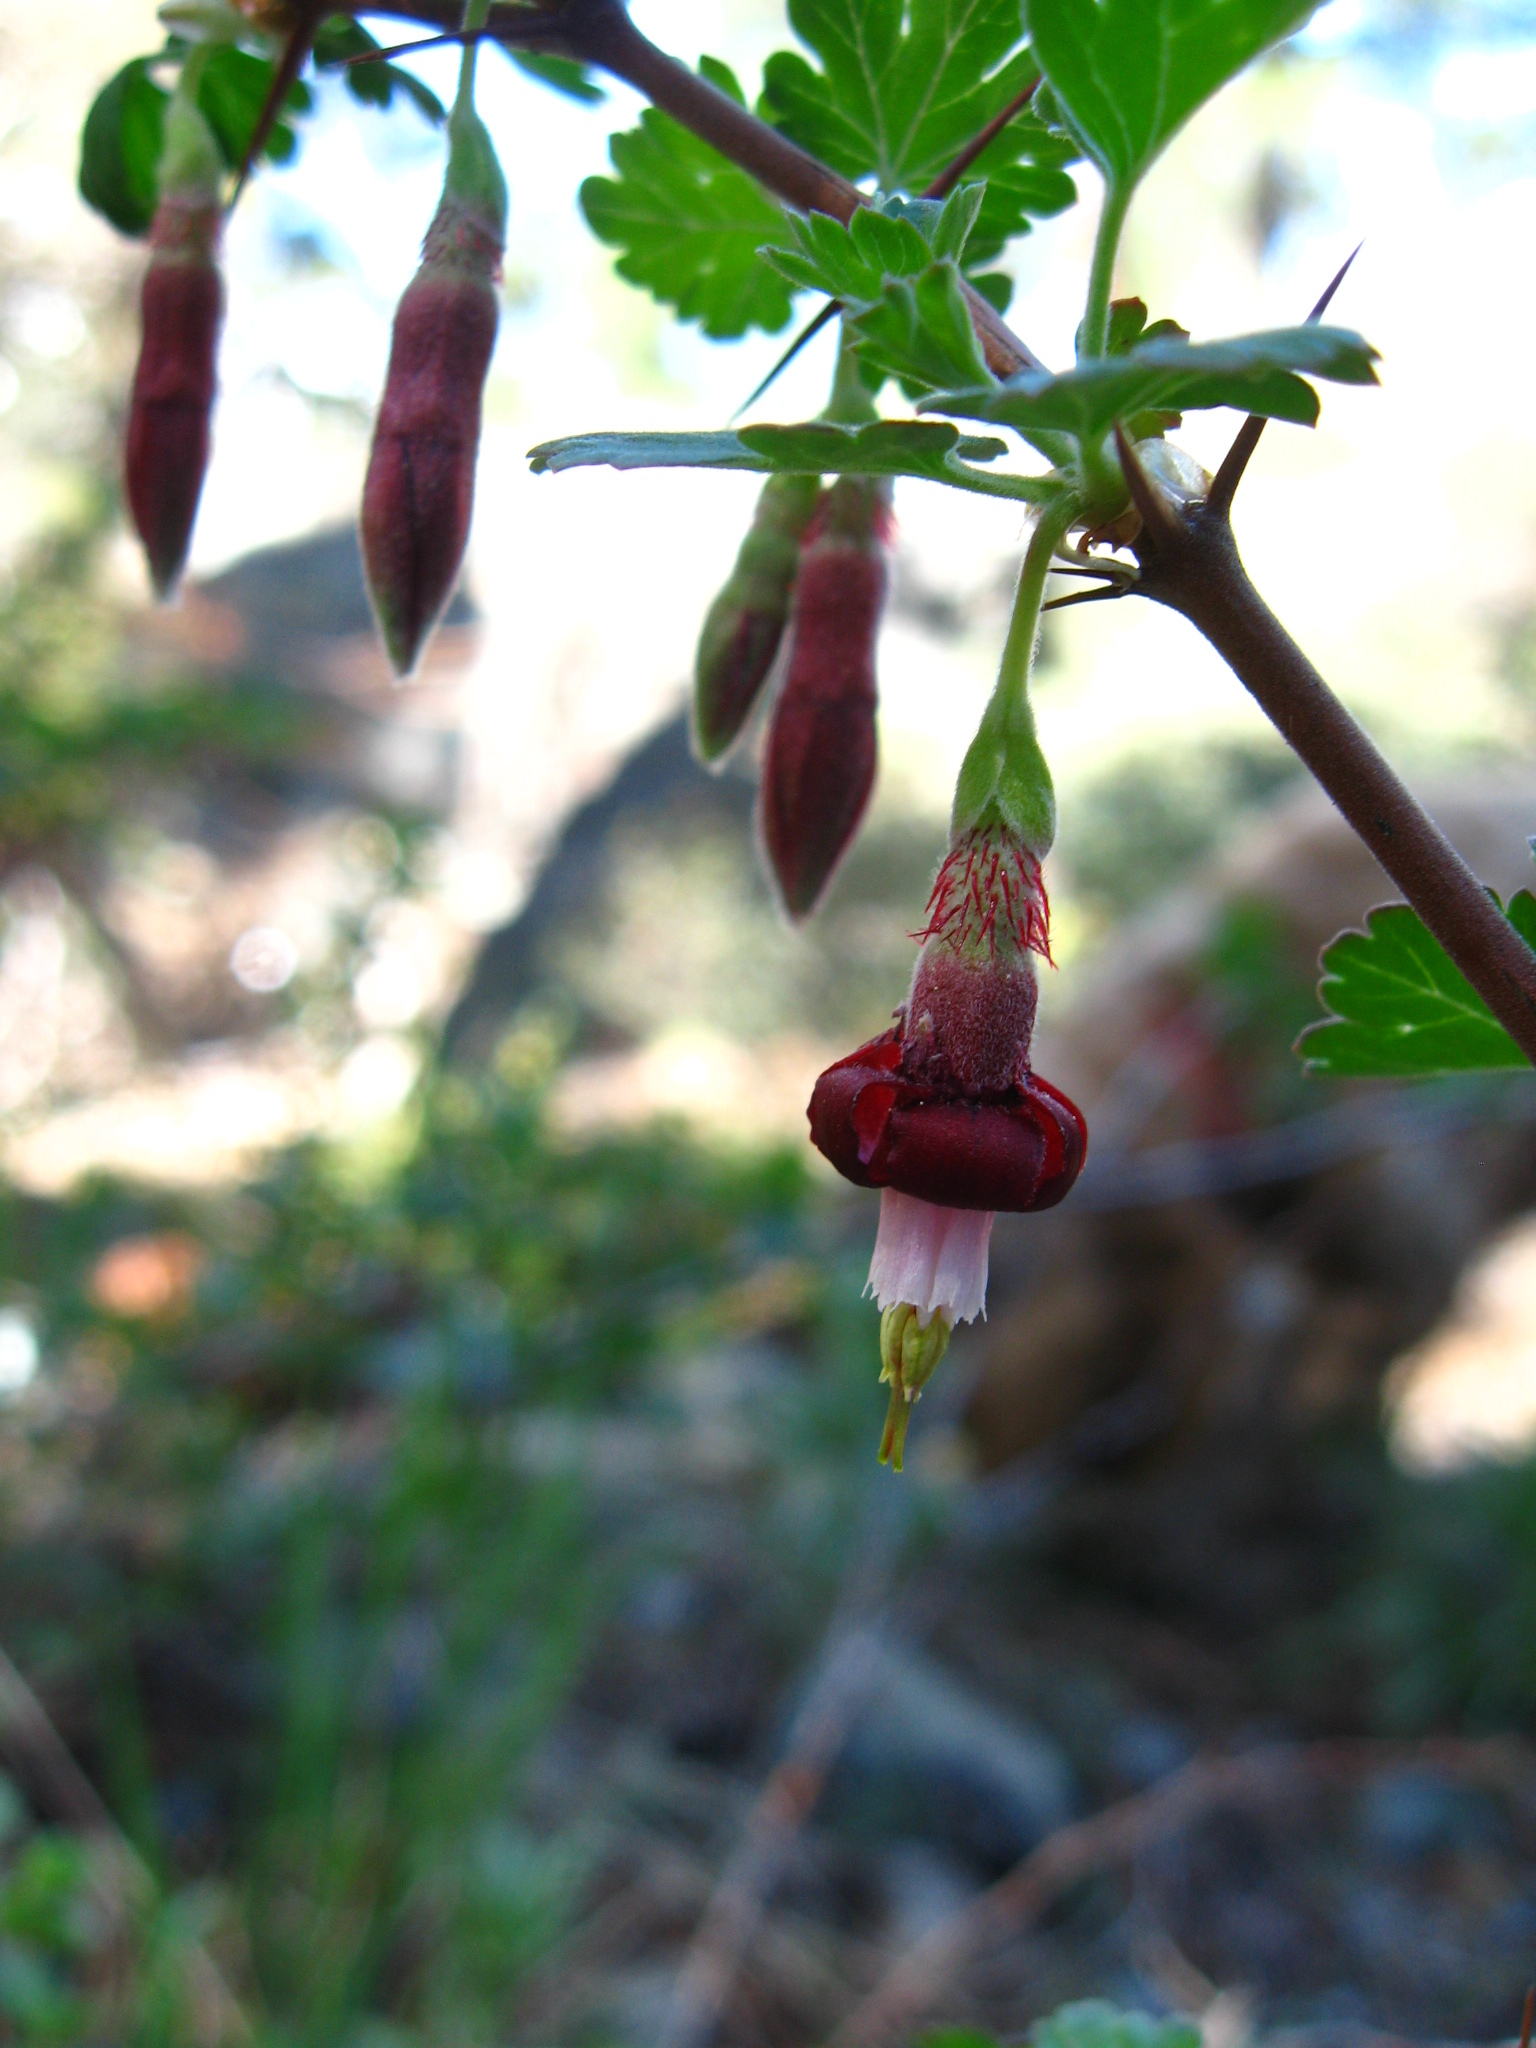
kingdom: Plantae
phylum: Tracheophyta
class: Magnoliopsida
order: Saxifragales
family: Grossulariaceae
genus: Ribes
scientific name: Ribes roezlii
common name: Sierra gooseberry
